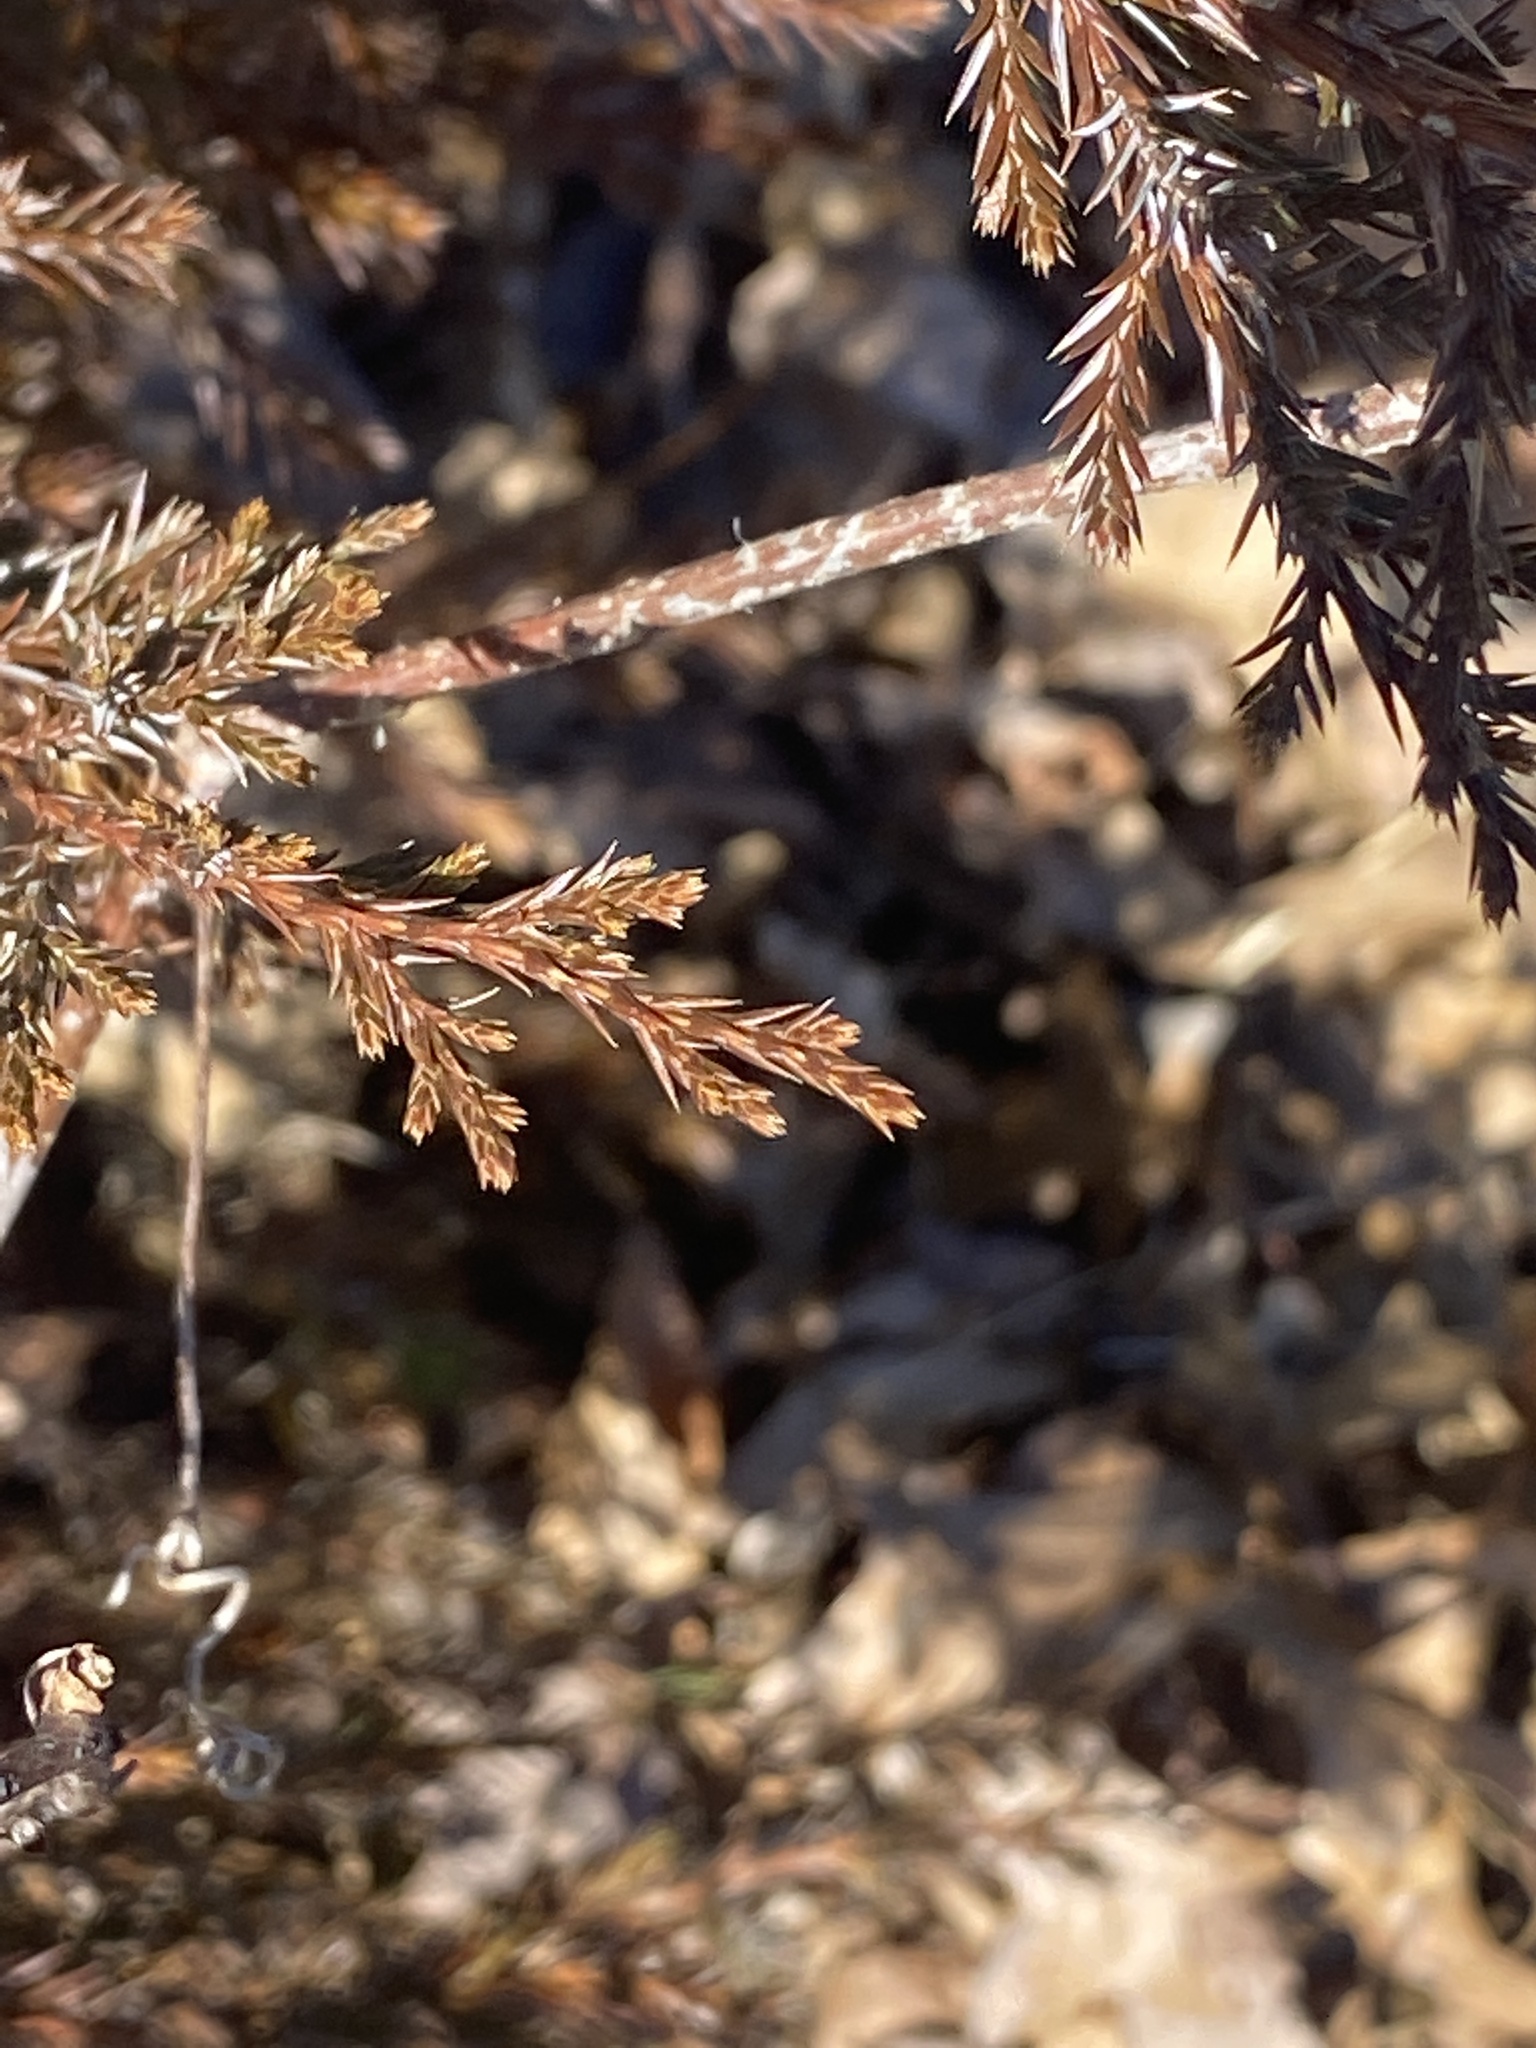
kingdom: Plantae
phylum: Tracheophyta
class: Pinopsida
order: Pinales
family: Cupressaceae
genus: Juniperus
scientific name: Juniperus virginiana
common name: Red juniper
